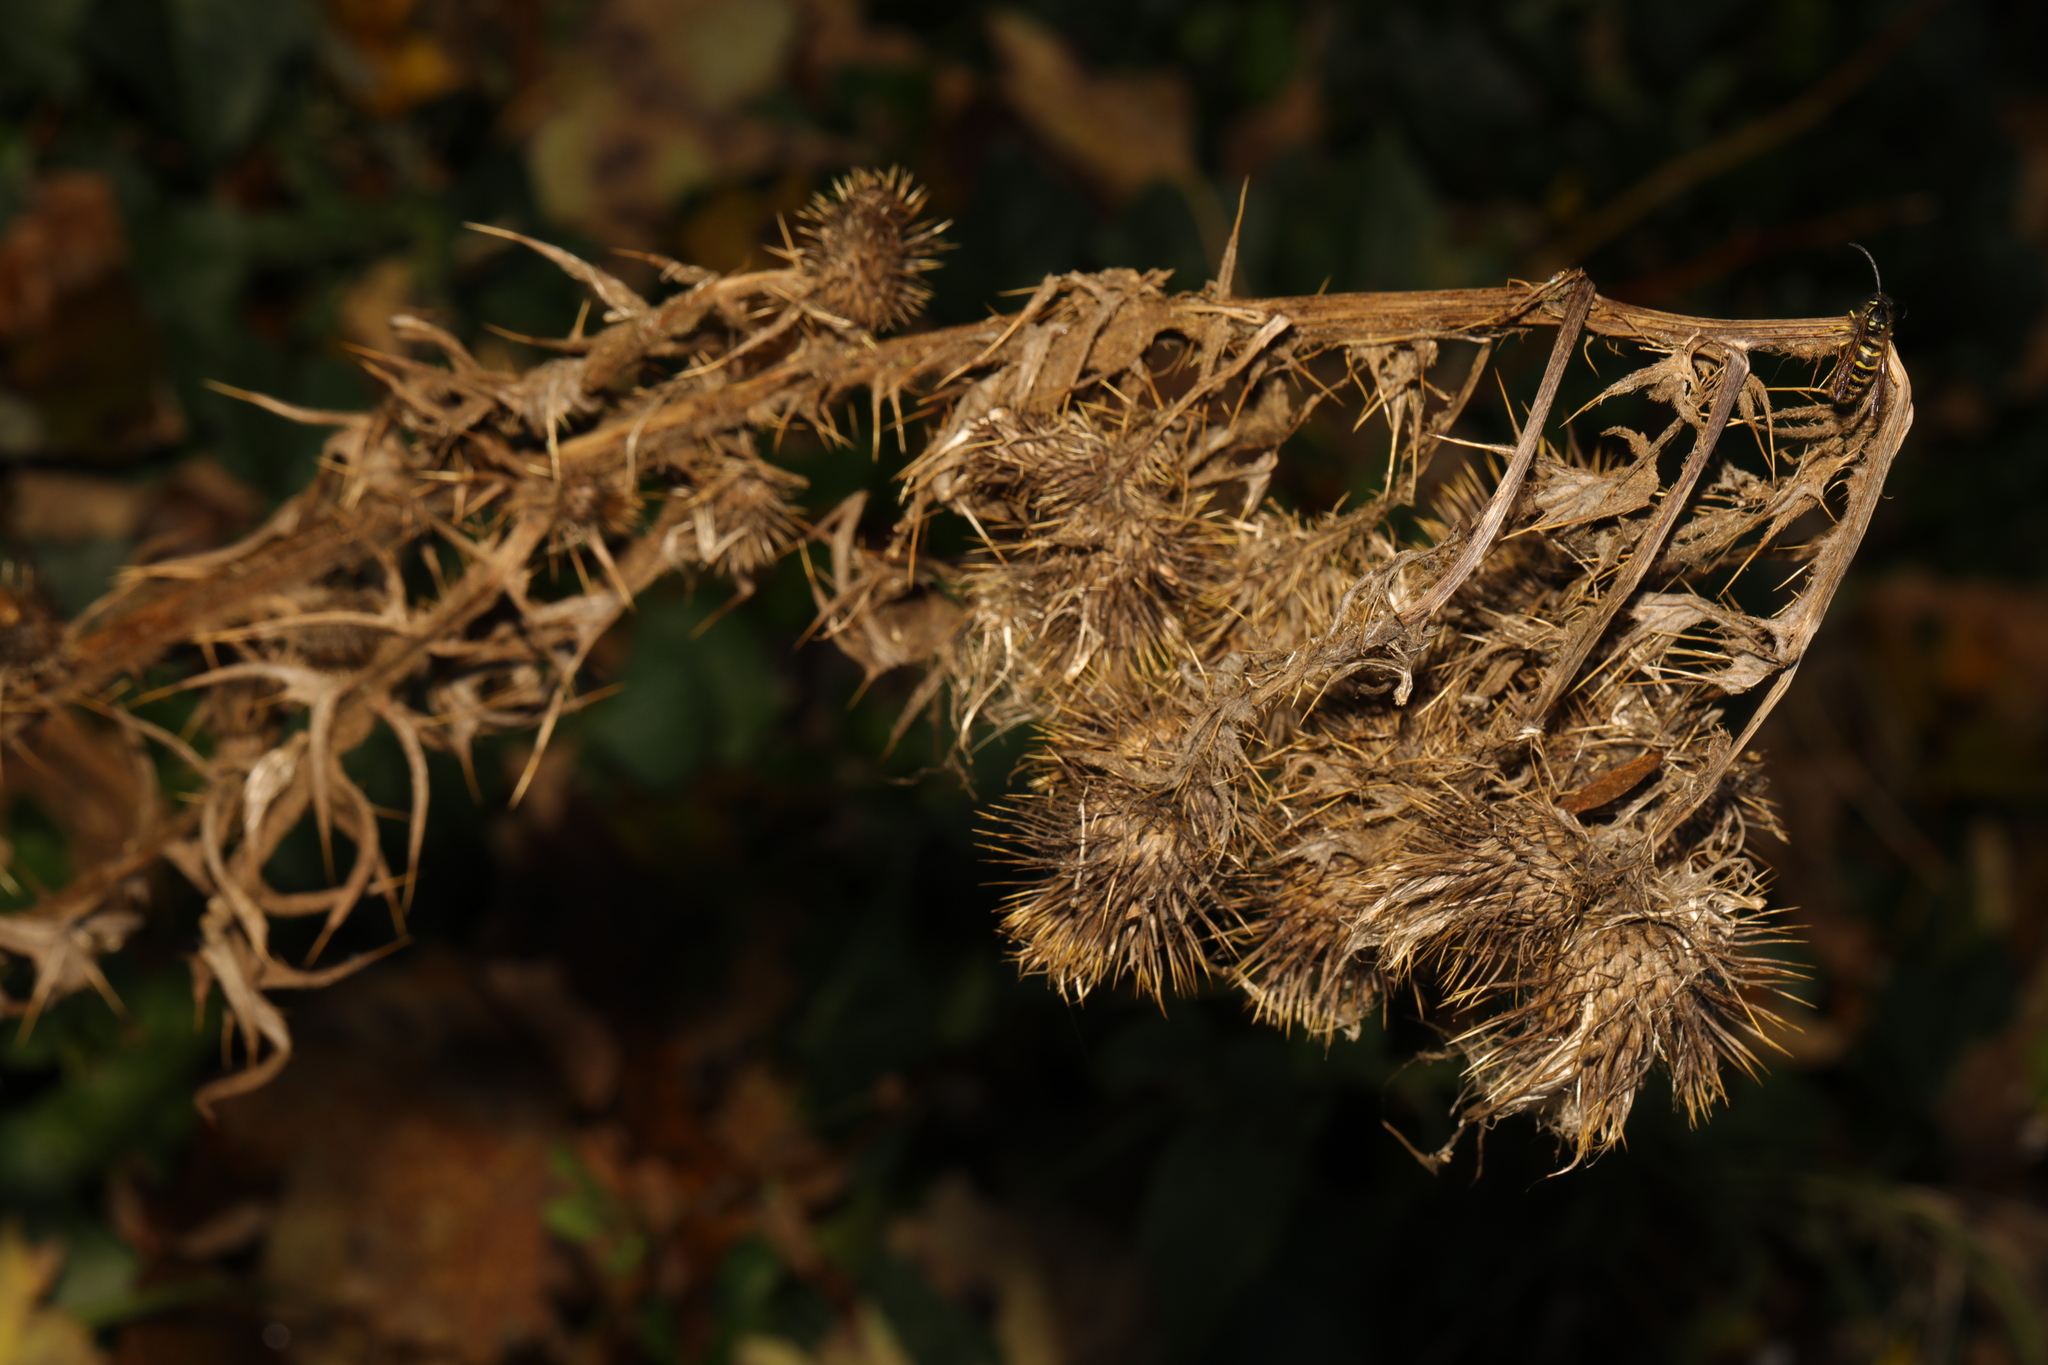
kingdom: Plantae
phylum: Tracheophyta
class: Magnoliopsida
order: Asterales
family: Asteraceae
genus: Cirsium
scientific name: Cirsium vulgare
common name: Bull thistle
